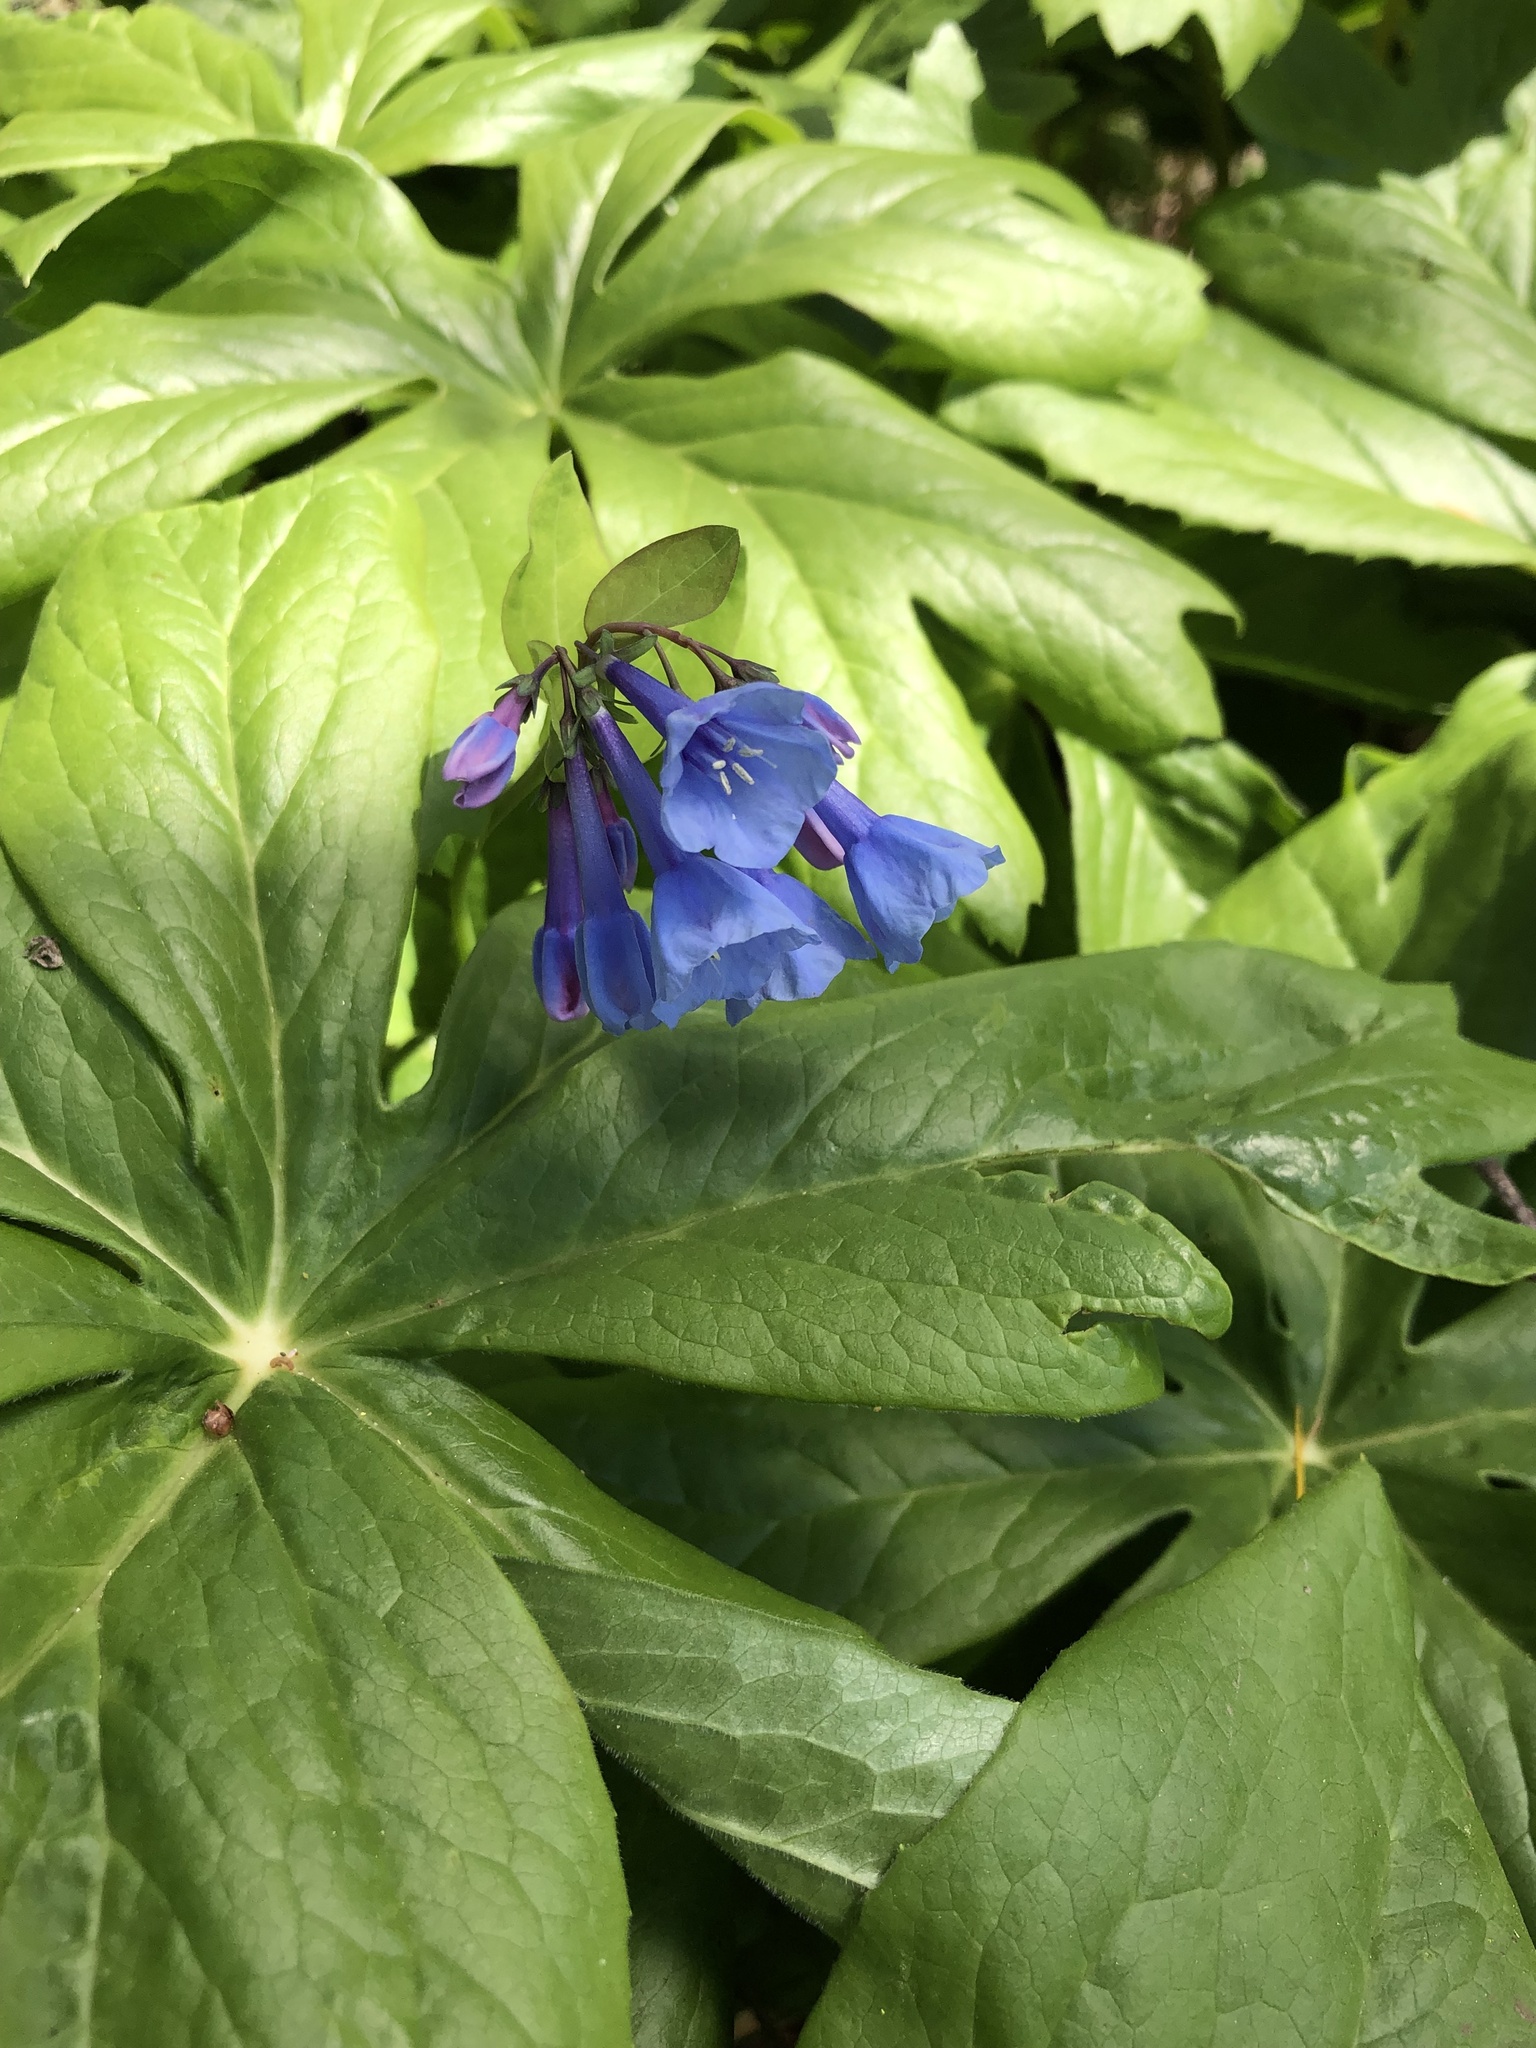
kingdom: Plantae
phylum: Tracheophyta
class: Magnoliopsida
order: Boraginales
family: Boraginaceae
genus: Mertensia
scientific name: Mertensia virginica
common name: Virginia bluebells
